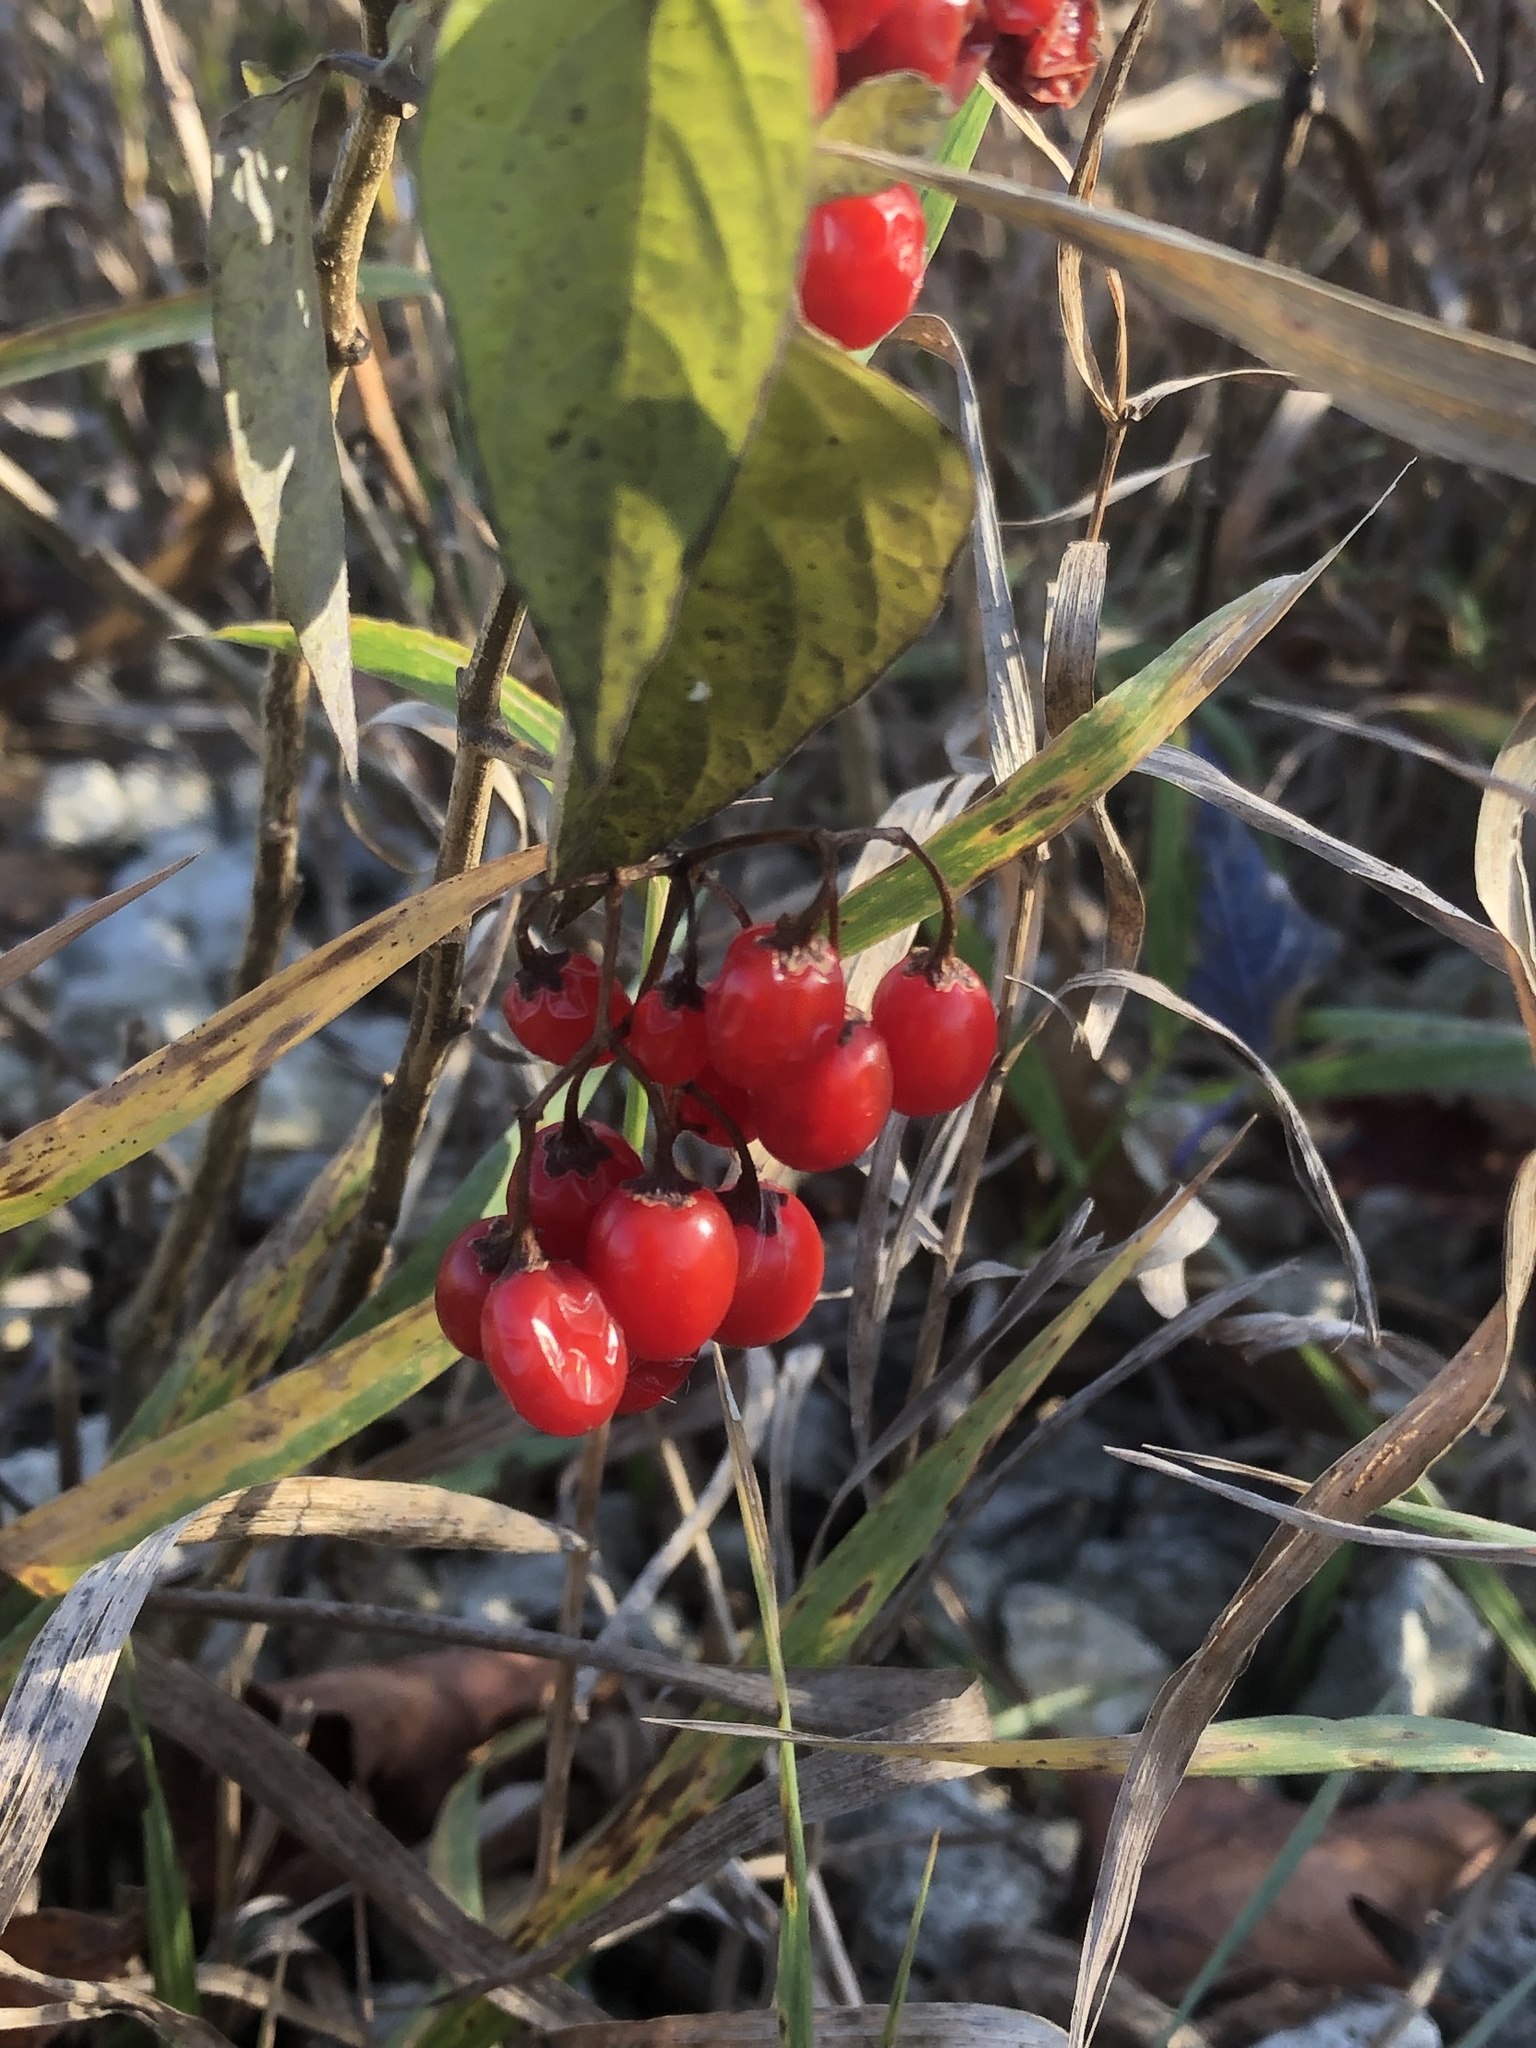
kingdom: Plantae
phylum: Tracheophyta
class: Magnoliopsida
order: Solanales
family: Solanaceae
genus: Solanum
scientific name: Solanum dulcamara
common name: Climbing nightshade
